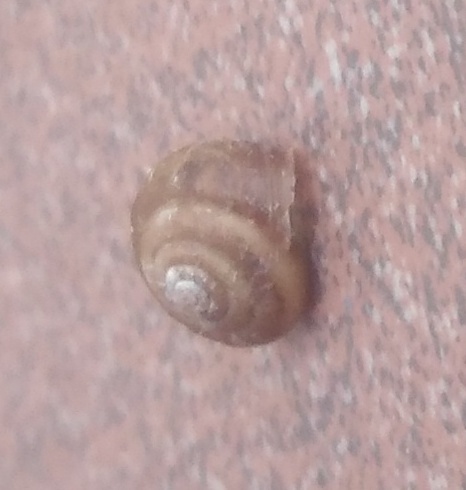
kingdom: Animalia
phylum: Mollusca
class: Gastropoda
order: Stylommatophora
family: Camaenidae
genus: Fruticicola
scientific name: Fruticicola fruticum
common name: Bush snail
